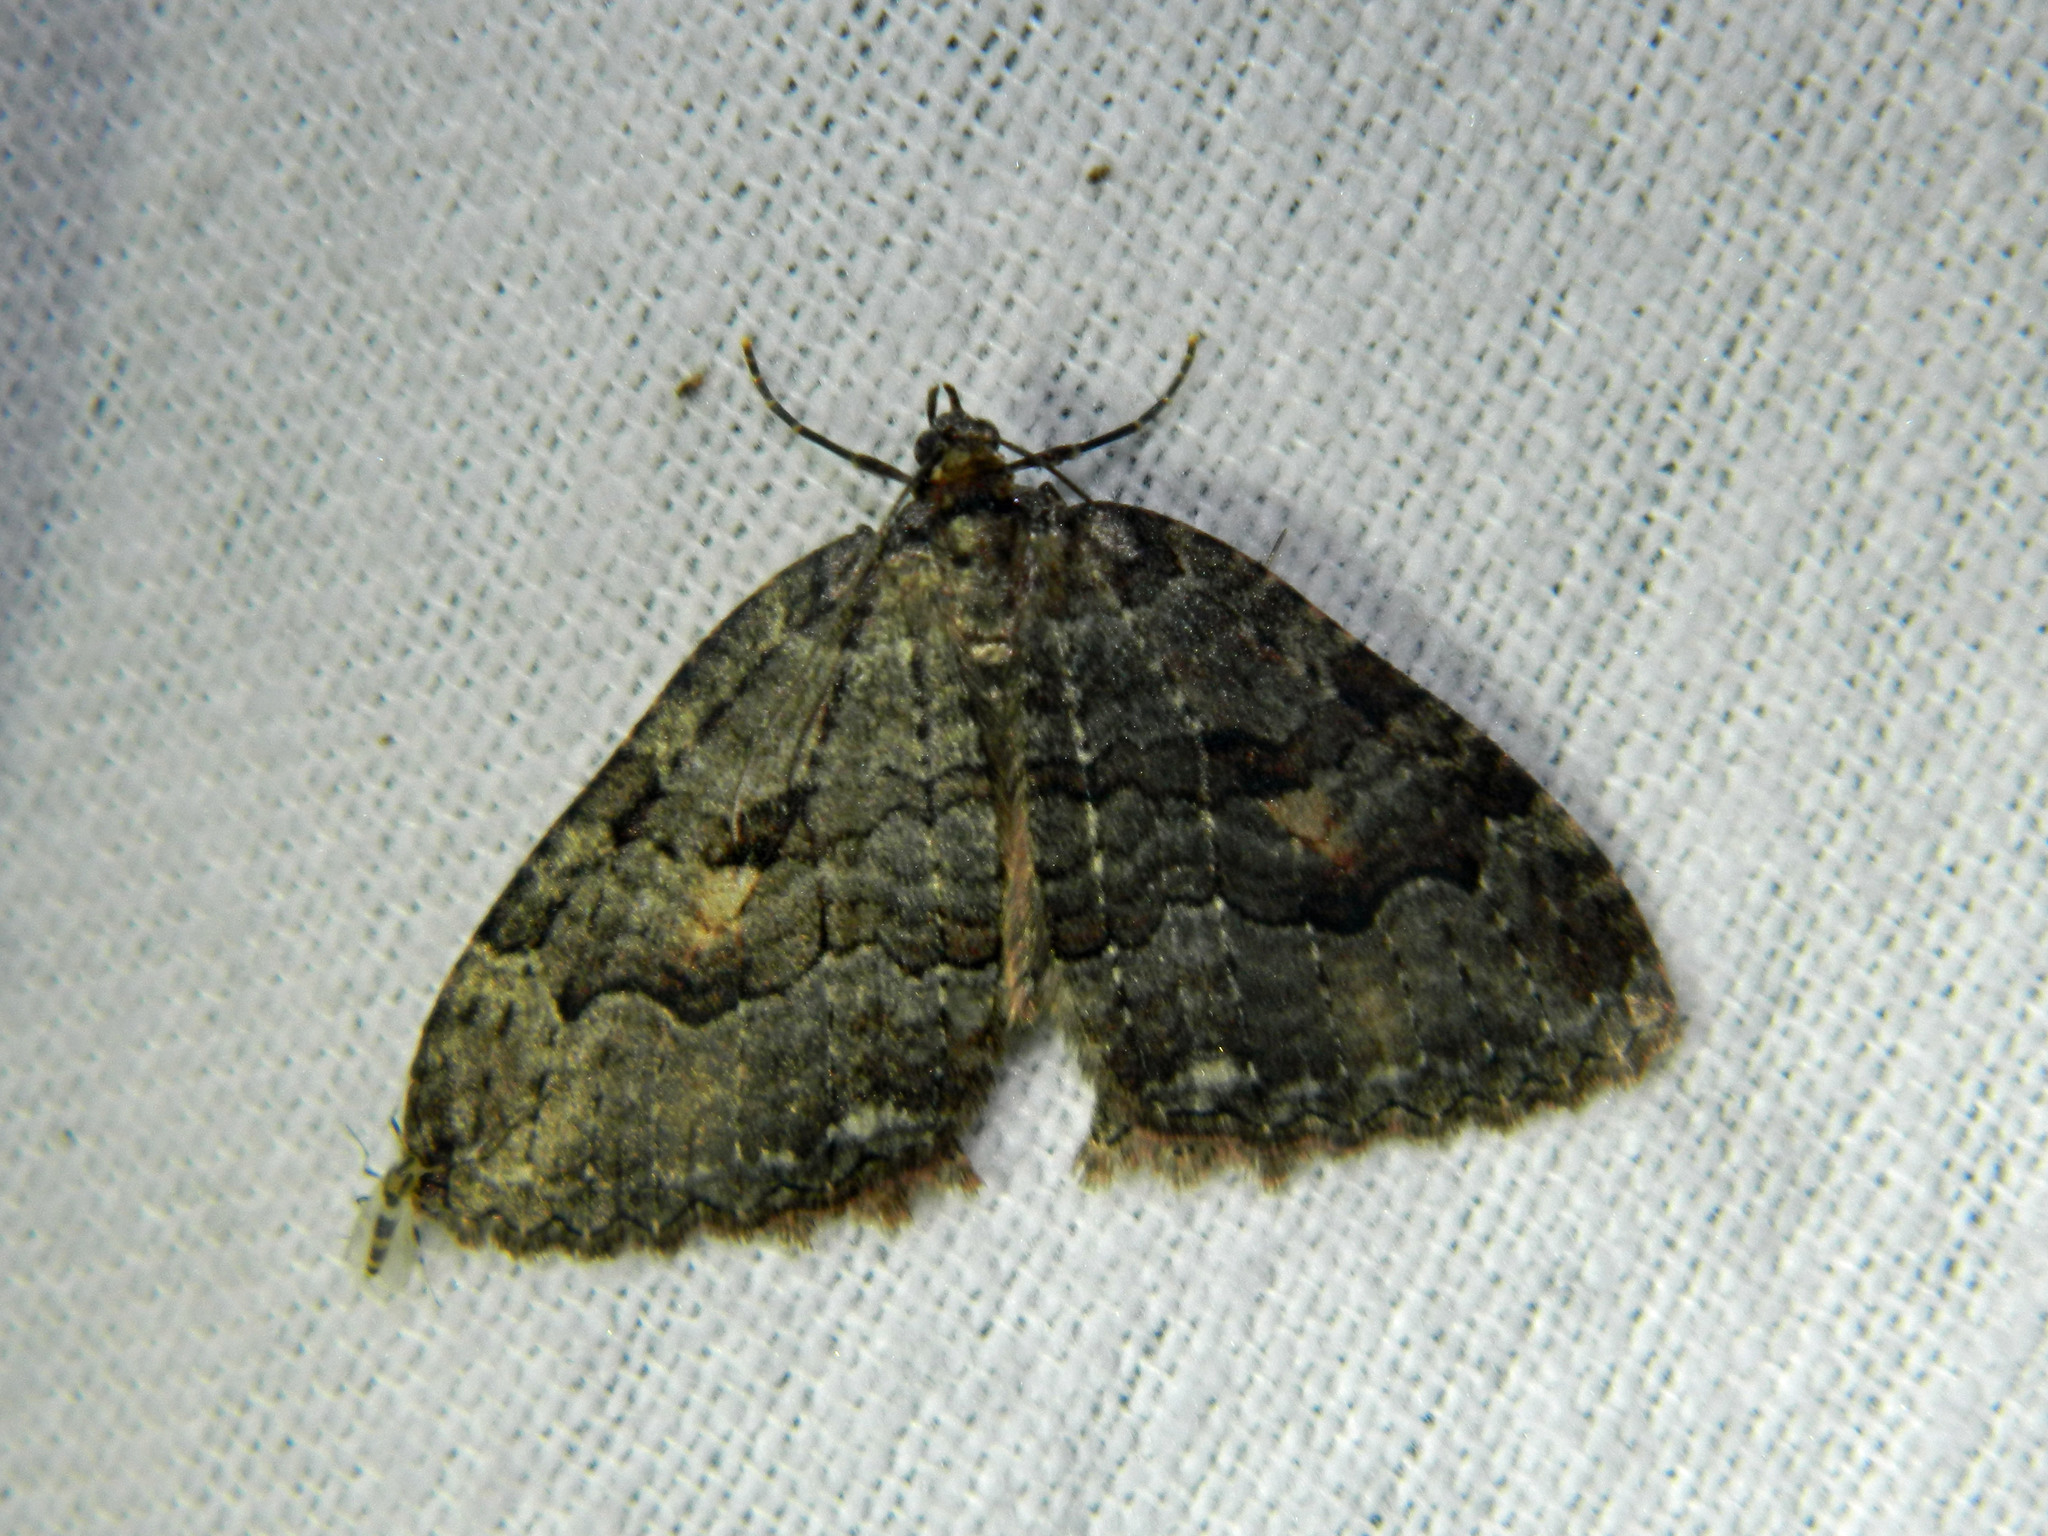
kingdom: Animalia
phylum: Arthropoda
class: Insecta
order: Lepidoptera
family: Geometridae
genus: Triphosa
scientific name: Triphosa haesitata
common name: Tissue moth
